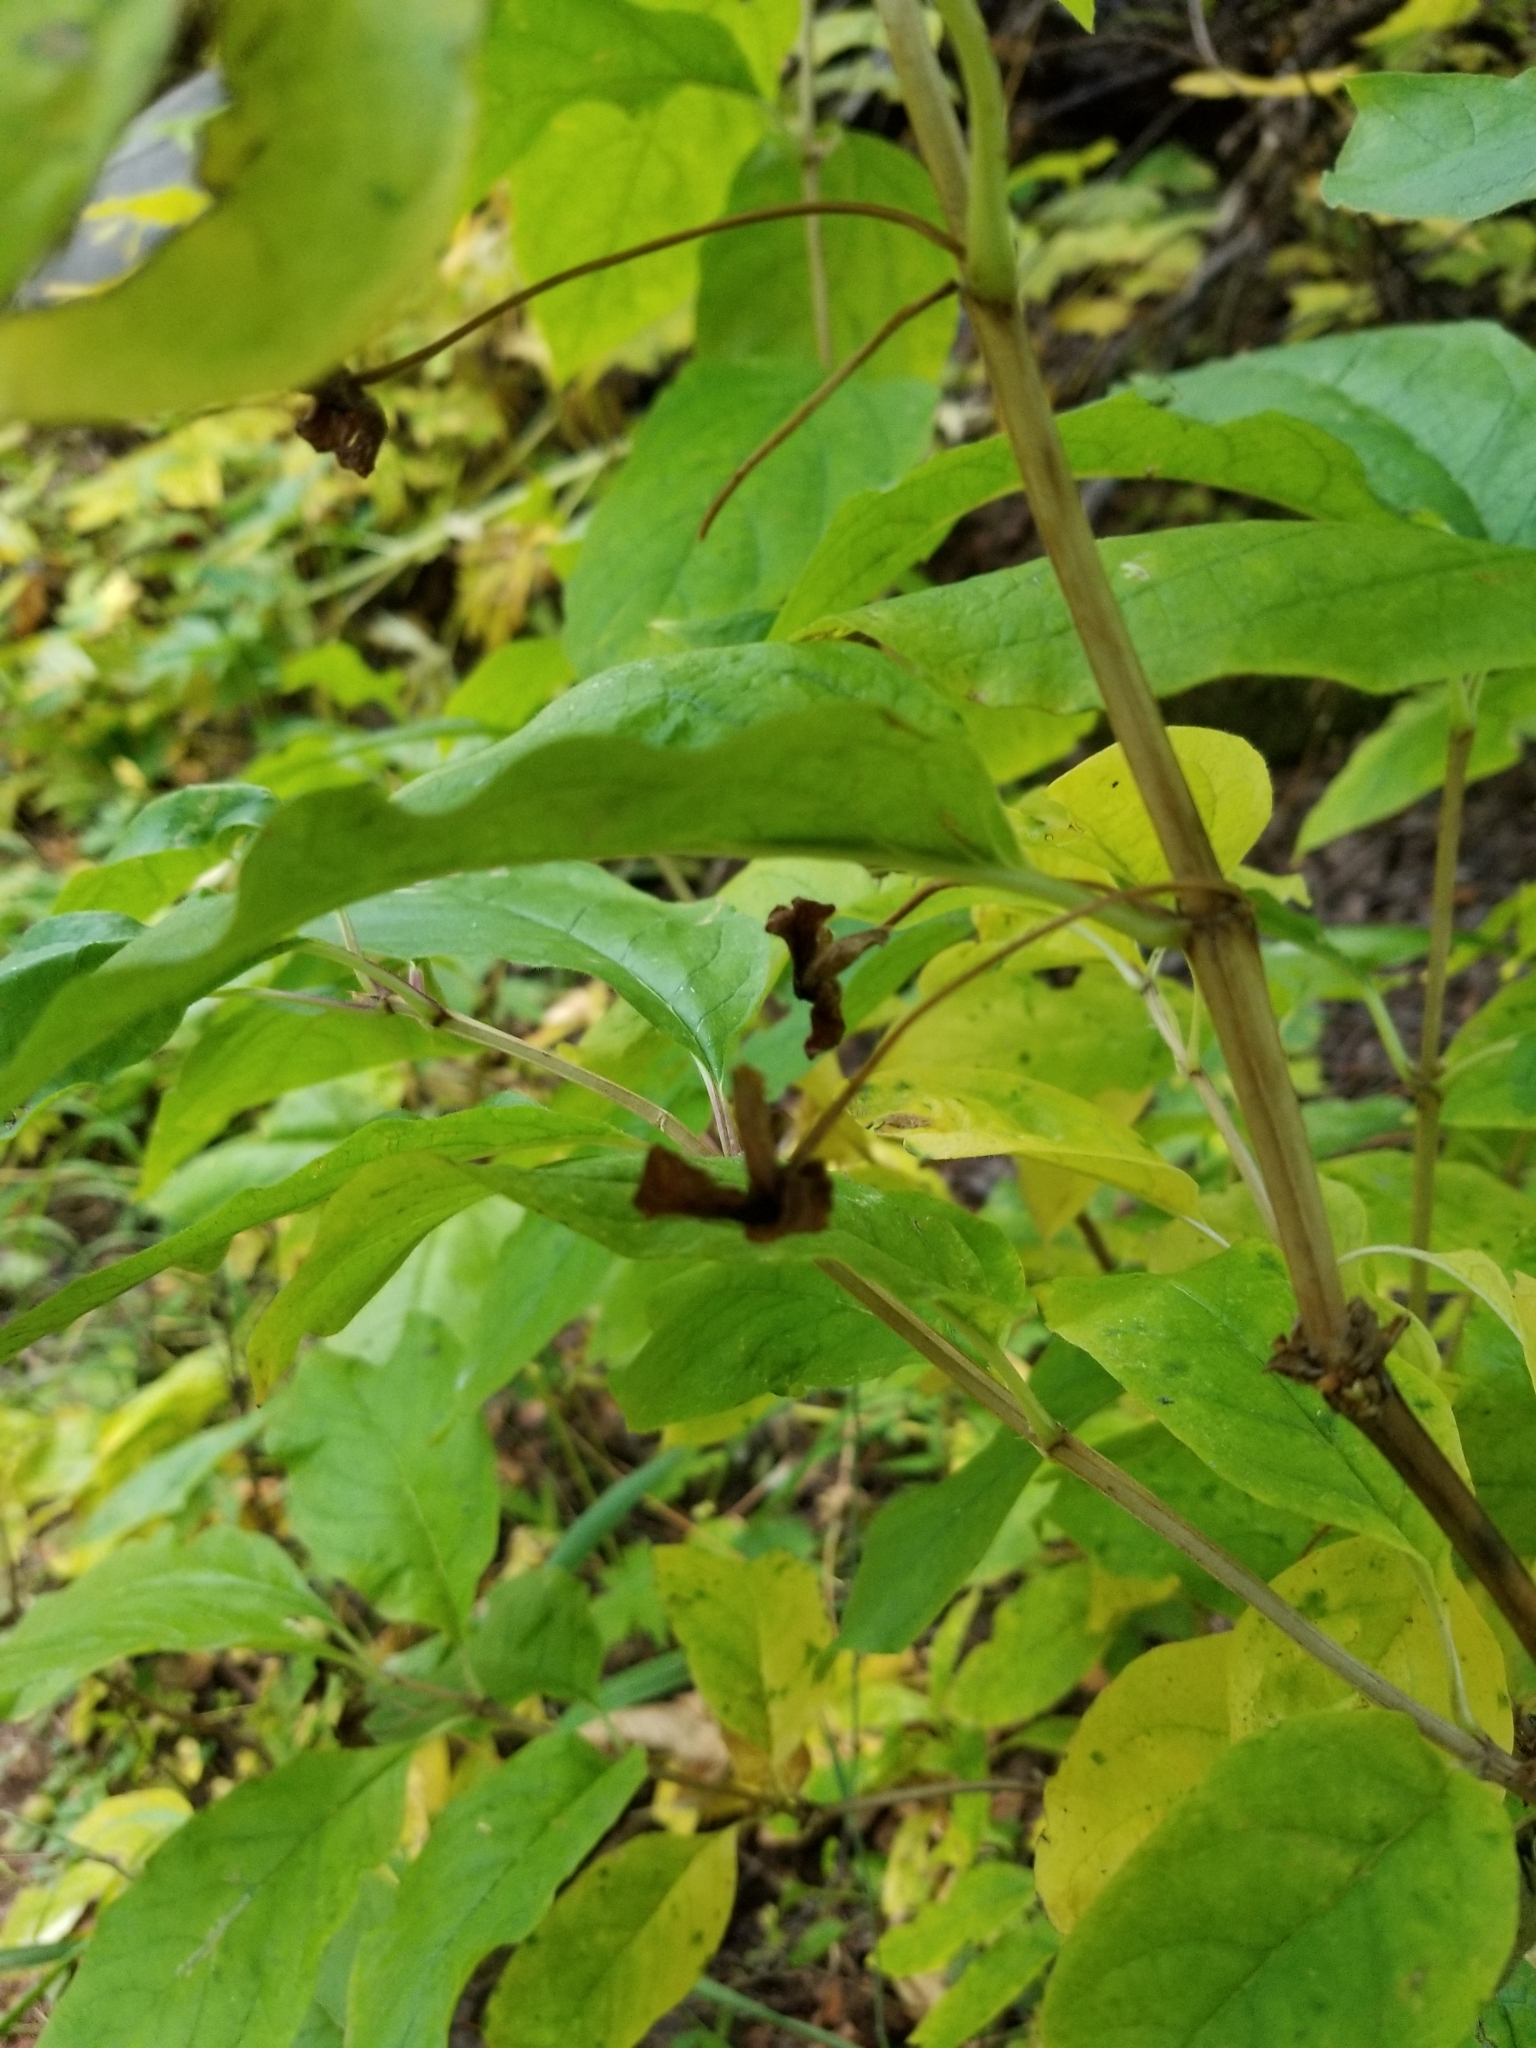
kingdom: Plantae
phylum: Tracheophyta
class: Magnoliopsida
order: Dipsacales
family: Caprifoliaceae
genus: Lonicera
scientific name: Lonicera involucrata
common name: Californian honeysuckle
